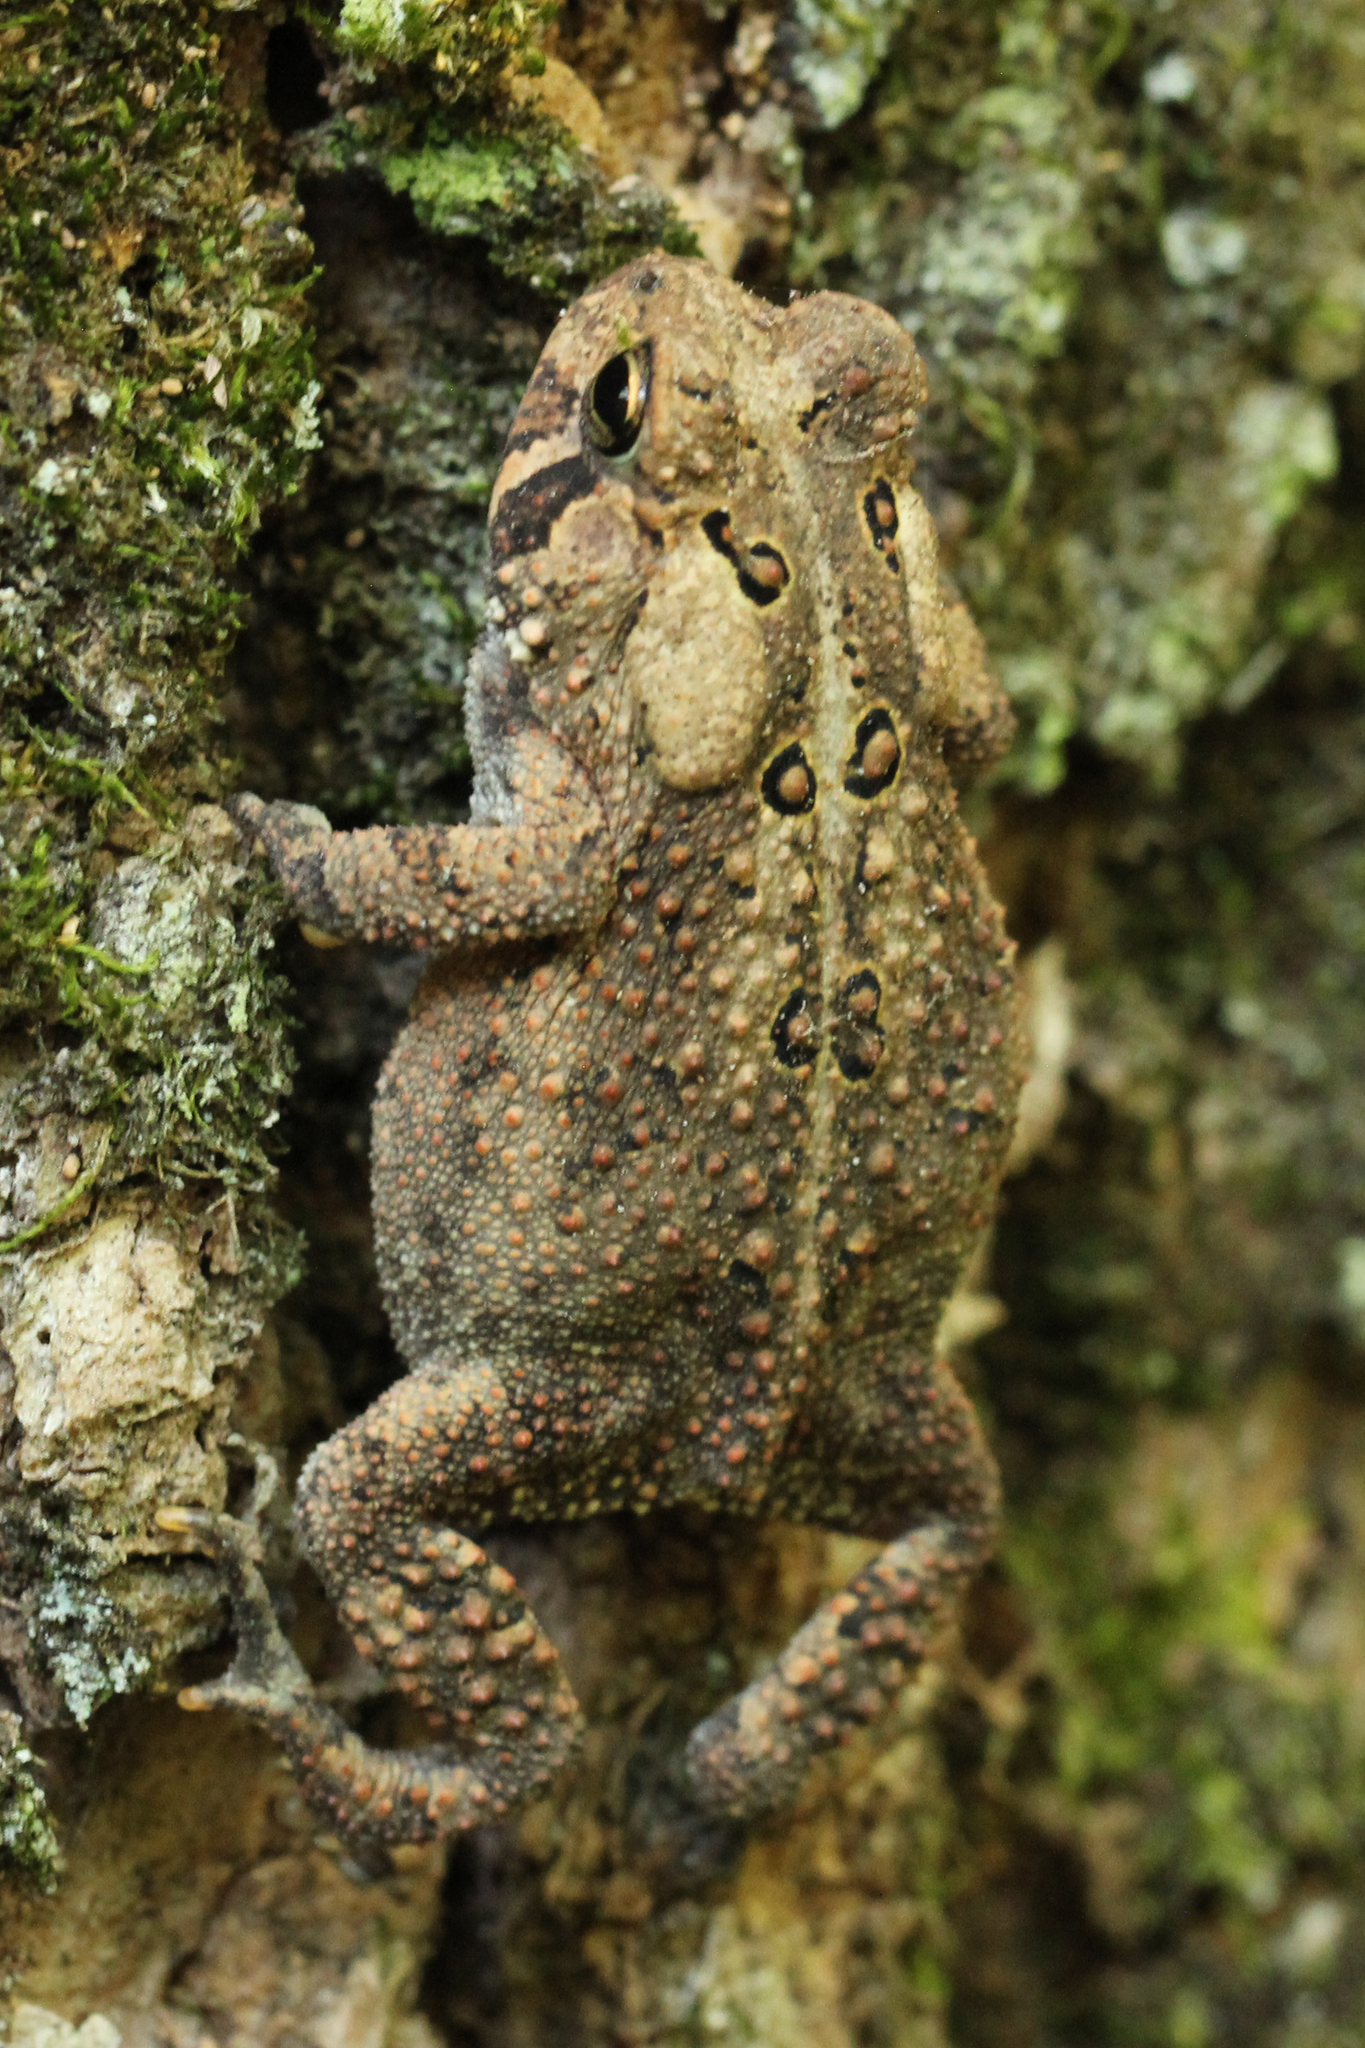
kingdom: Animalia
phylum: Chordata
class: Amphibia
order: Anura
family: Bufonidae
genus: Anaxyrus
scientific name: Anaxyrus americanus
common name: American toad
